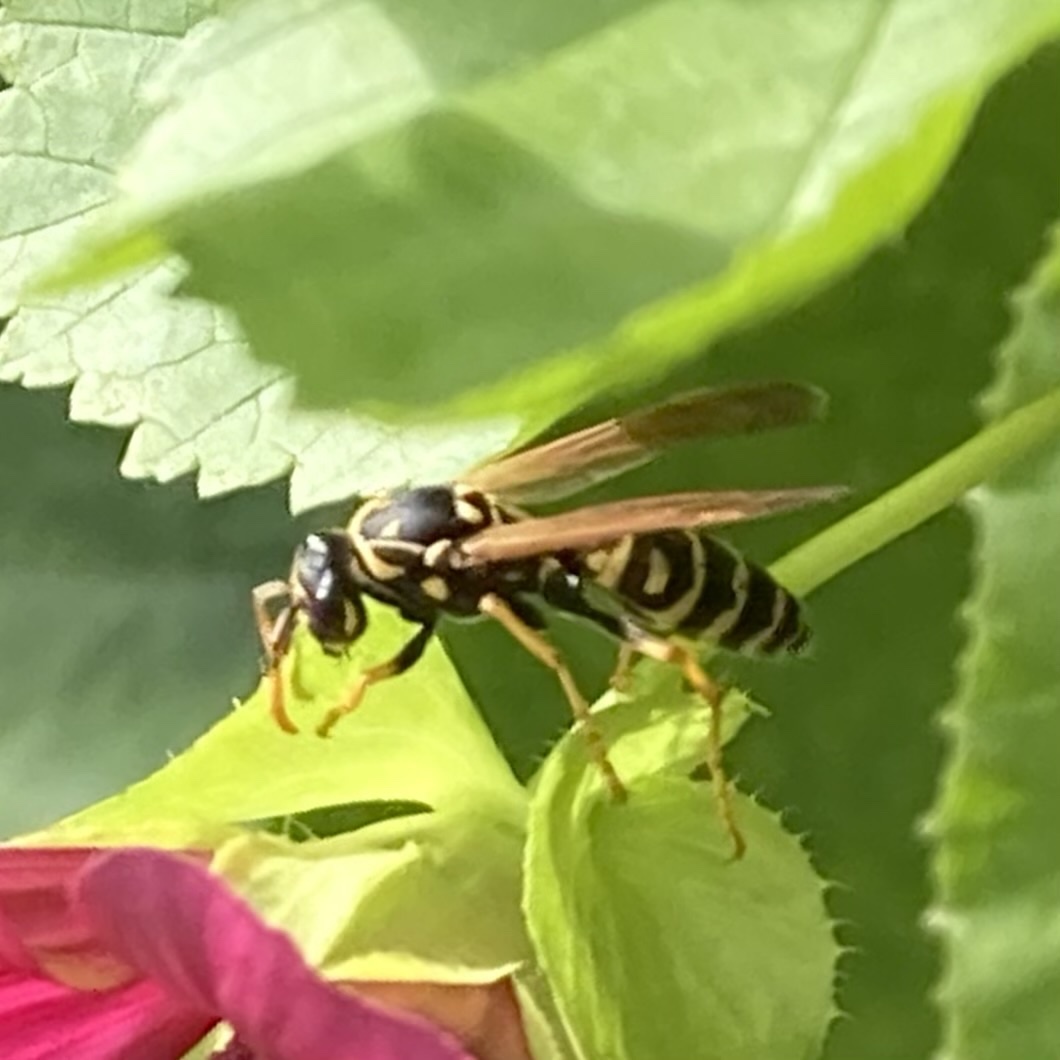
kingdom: Animalia
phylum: Arthropoda
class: Insecta
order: Hymenoptera
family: Eumenidae
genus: Polistes
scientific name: Polistes dominula
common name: Paper wasp
